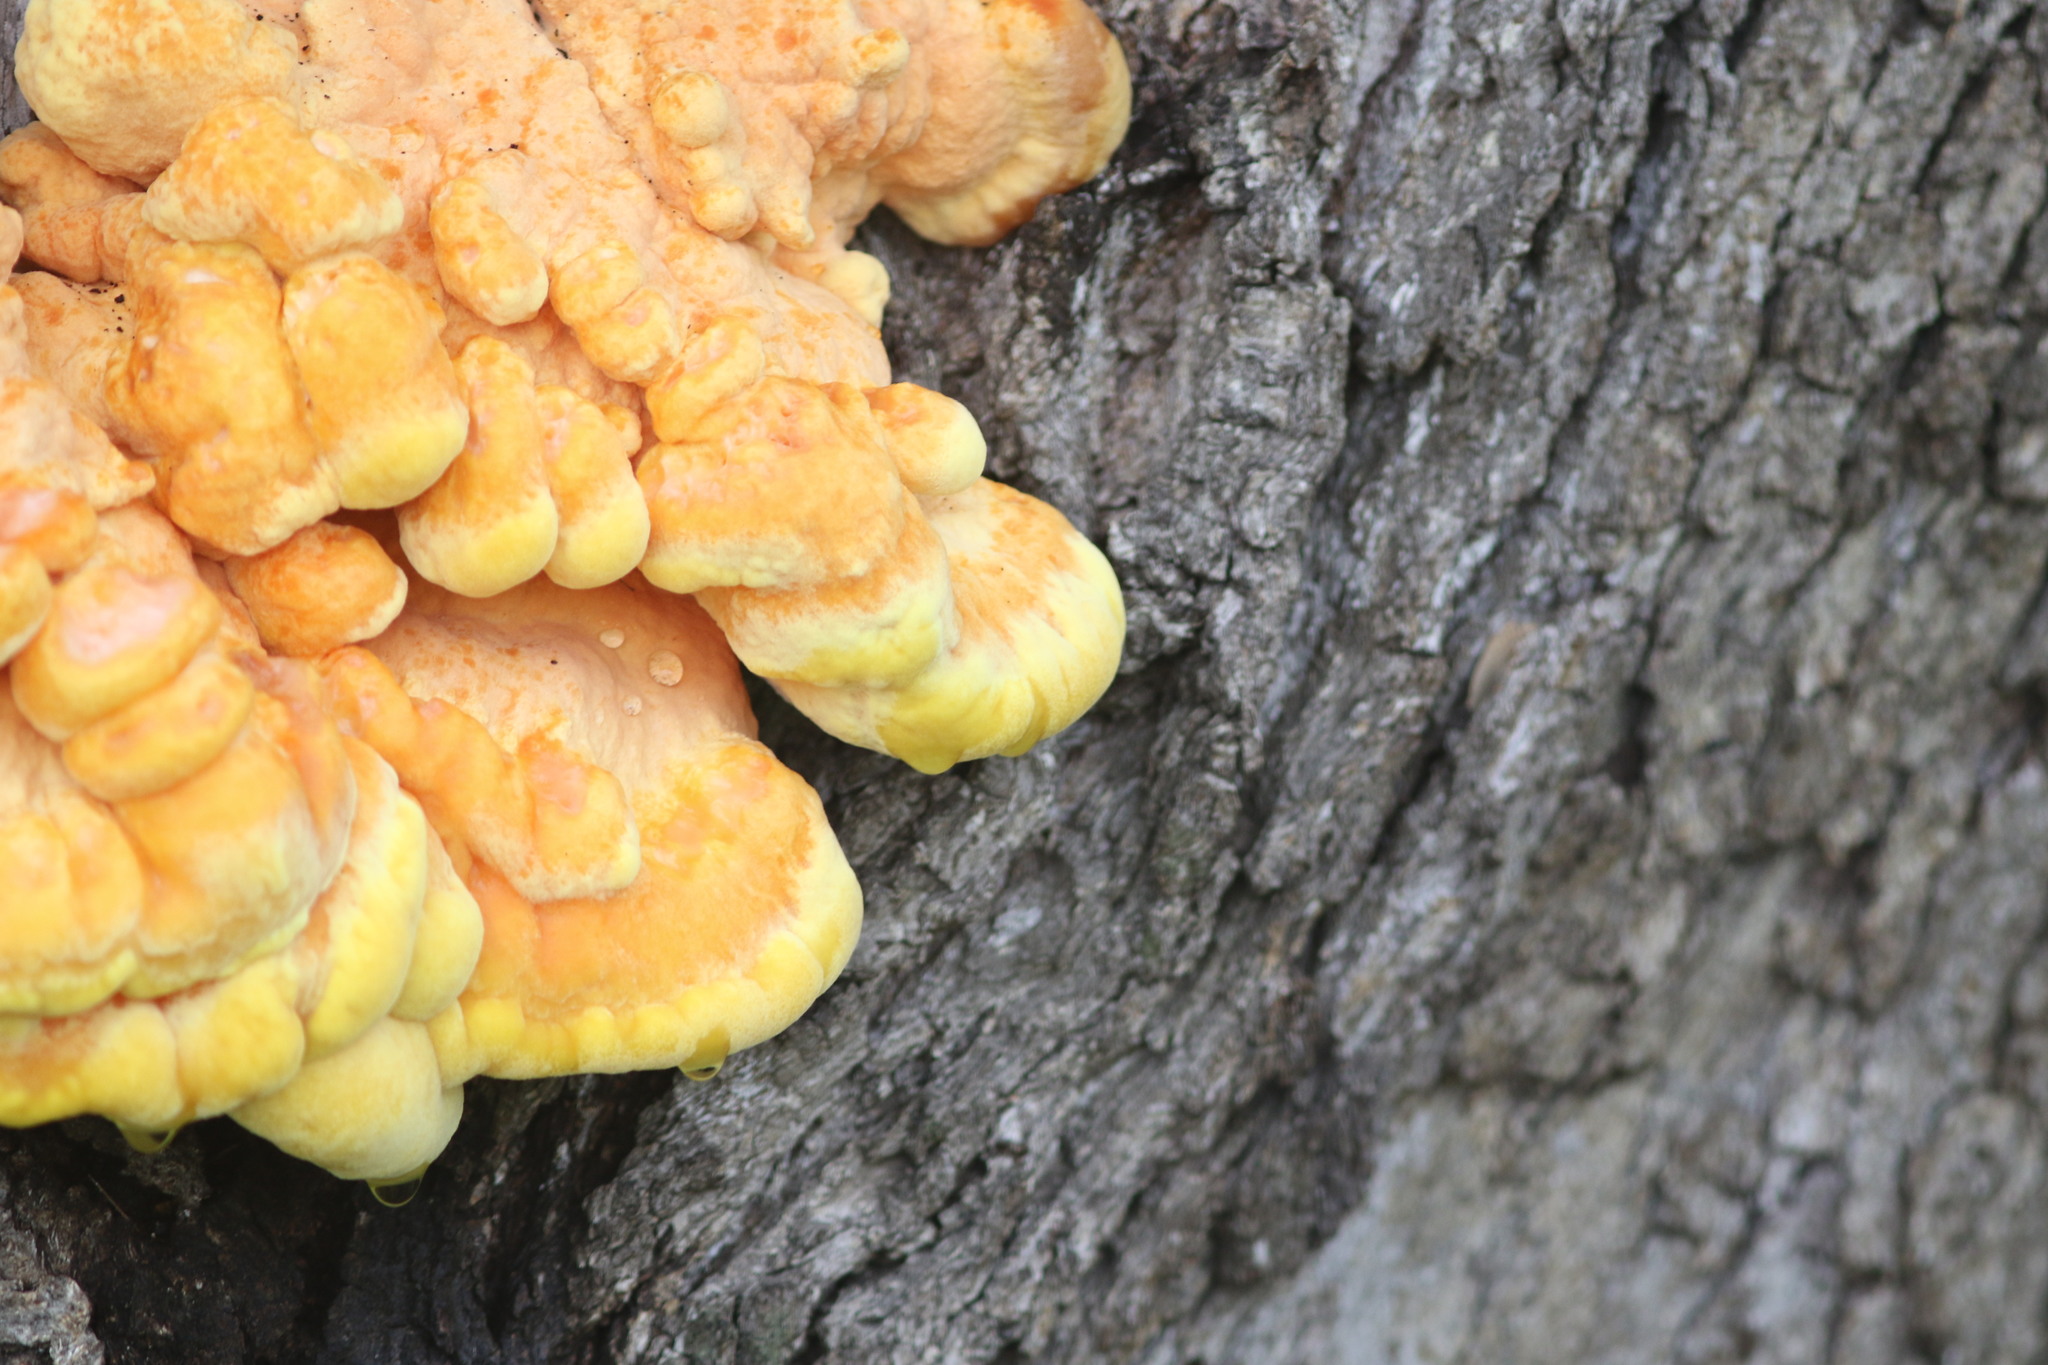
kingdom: Fungi
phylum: Basidiomycota
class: Agaricomycetes
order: Polyporales
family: Laetiporaceae
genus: Laetiporus
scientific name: Laetiporus sulphureus
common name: Chicken of the woods
